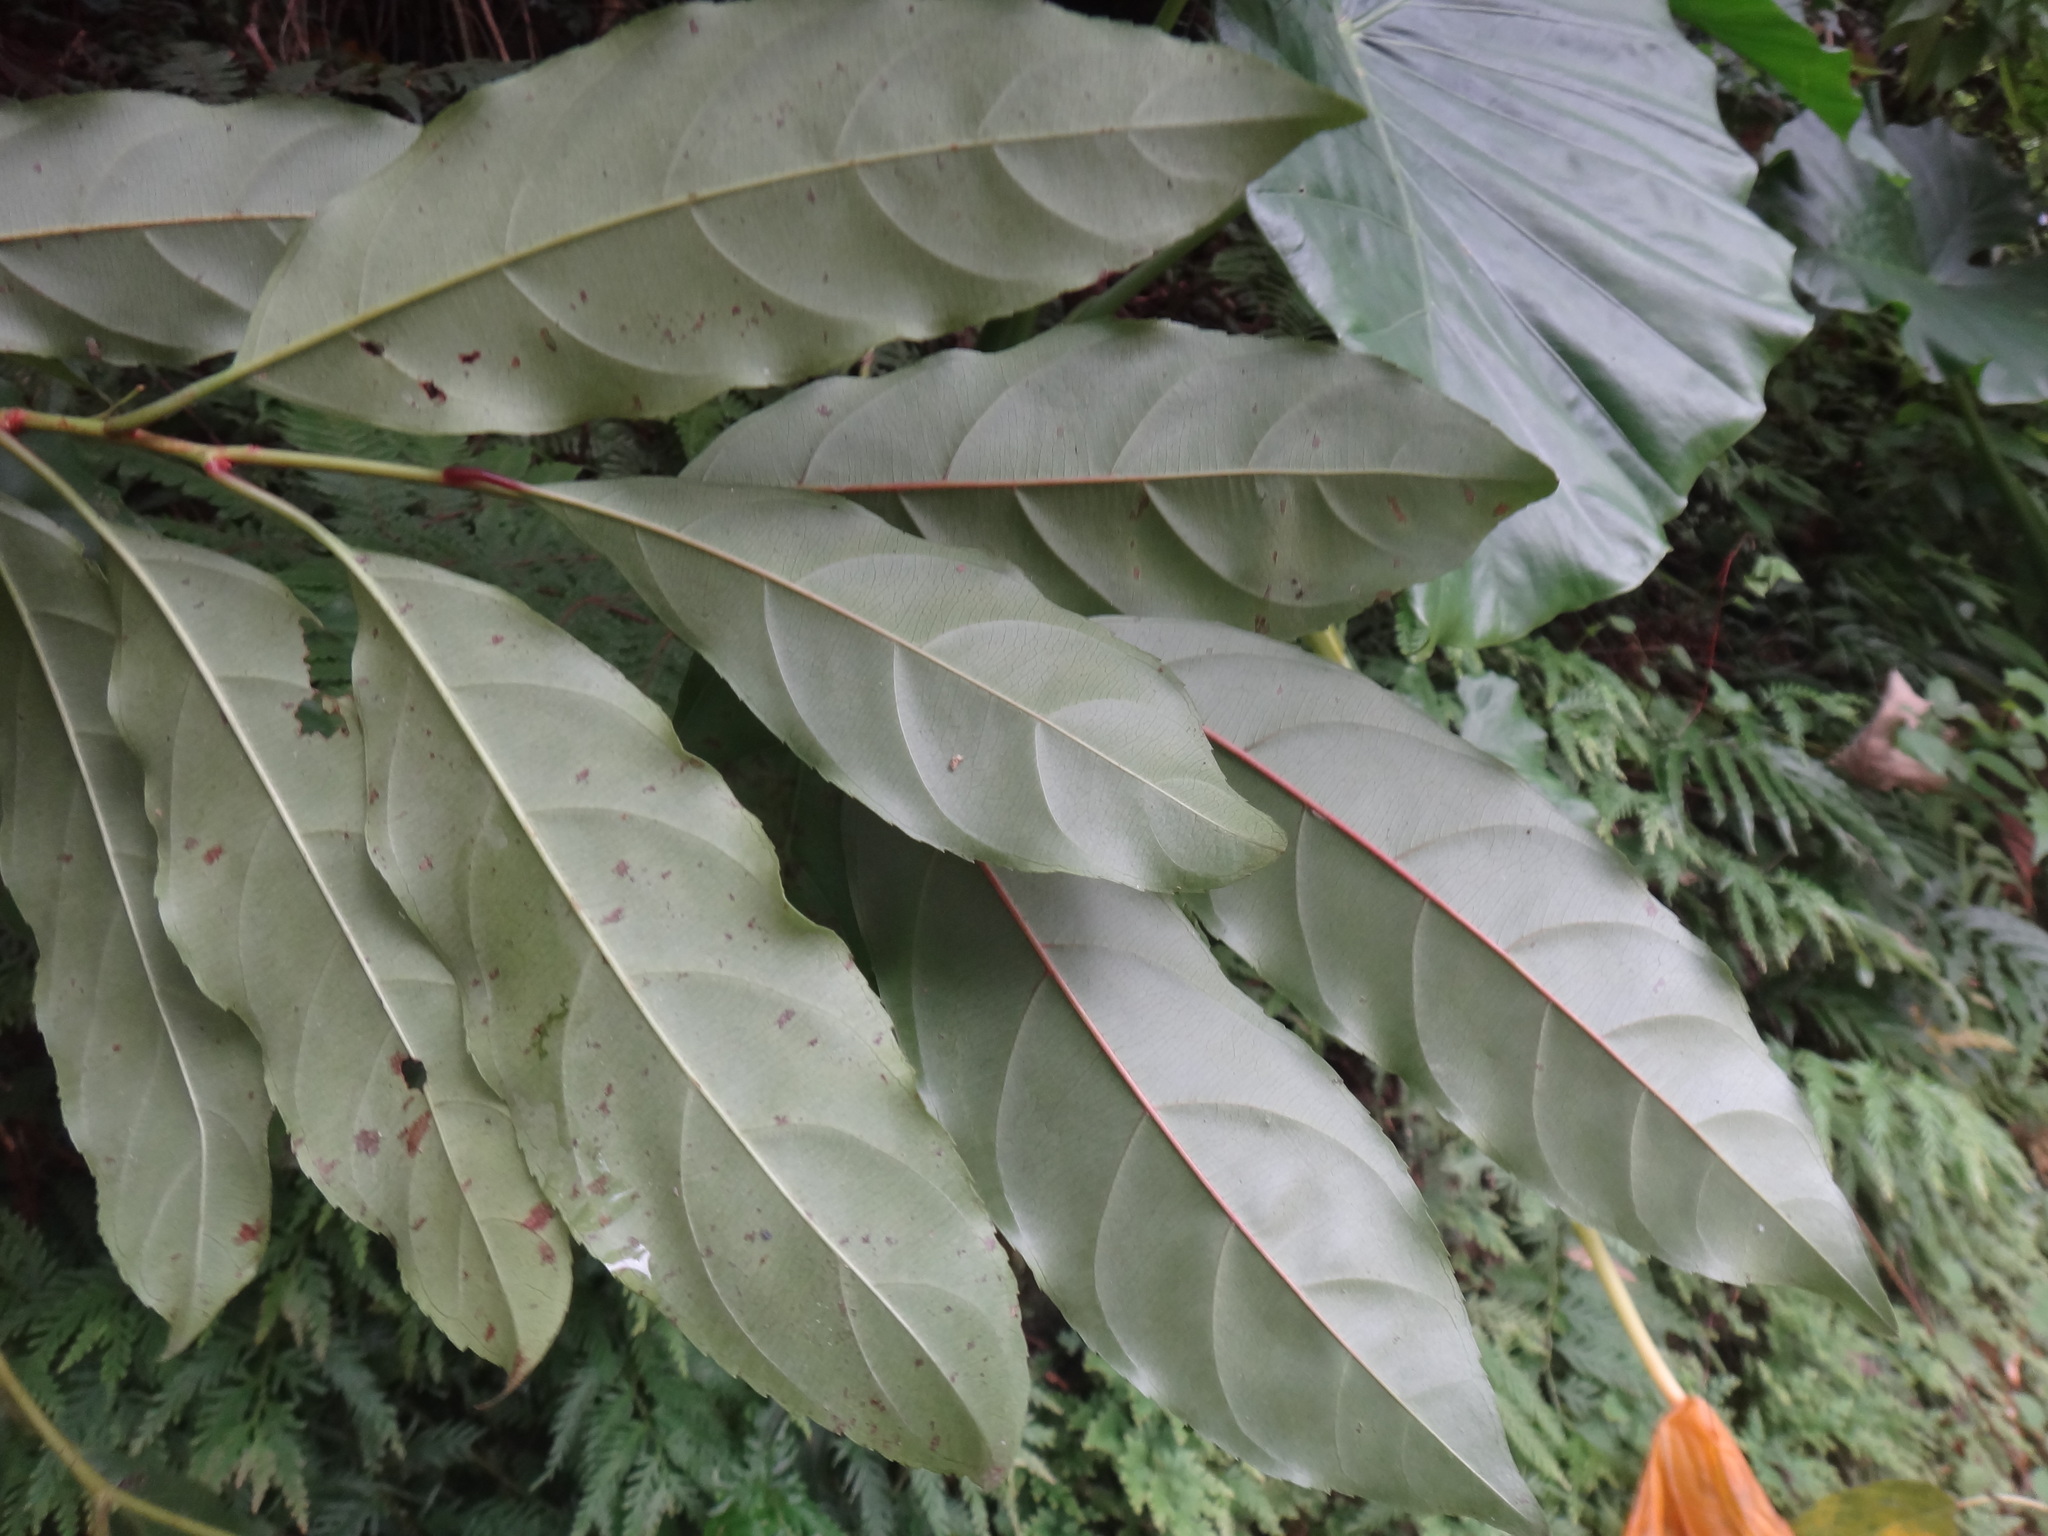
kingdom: Plantae
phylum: Tracheophyta
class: Magnoliopsida
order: Saxifragales
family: Iteaceae
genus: Itea
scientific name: Itea parviflora
